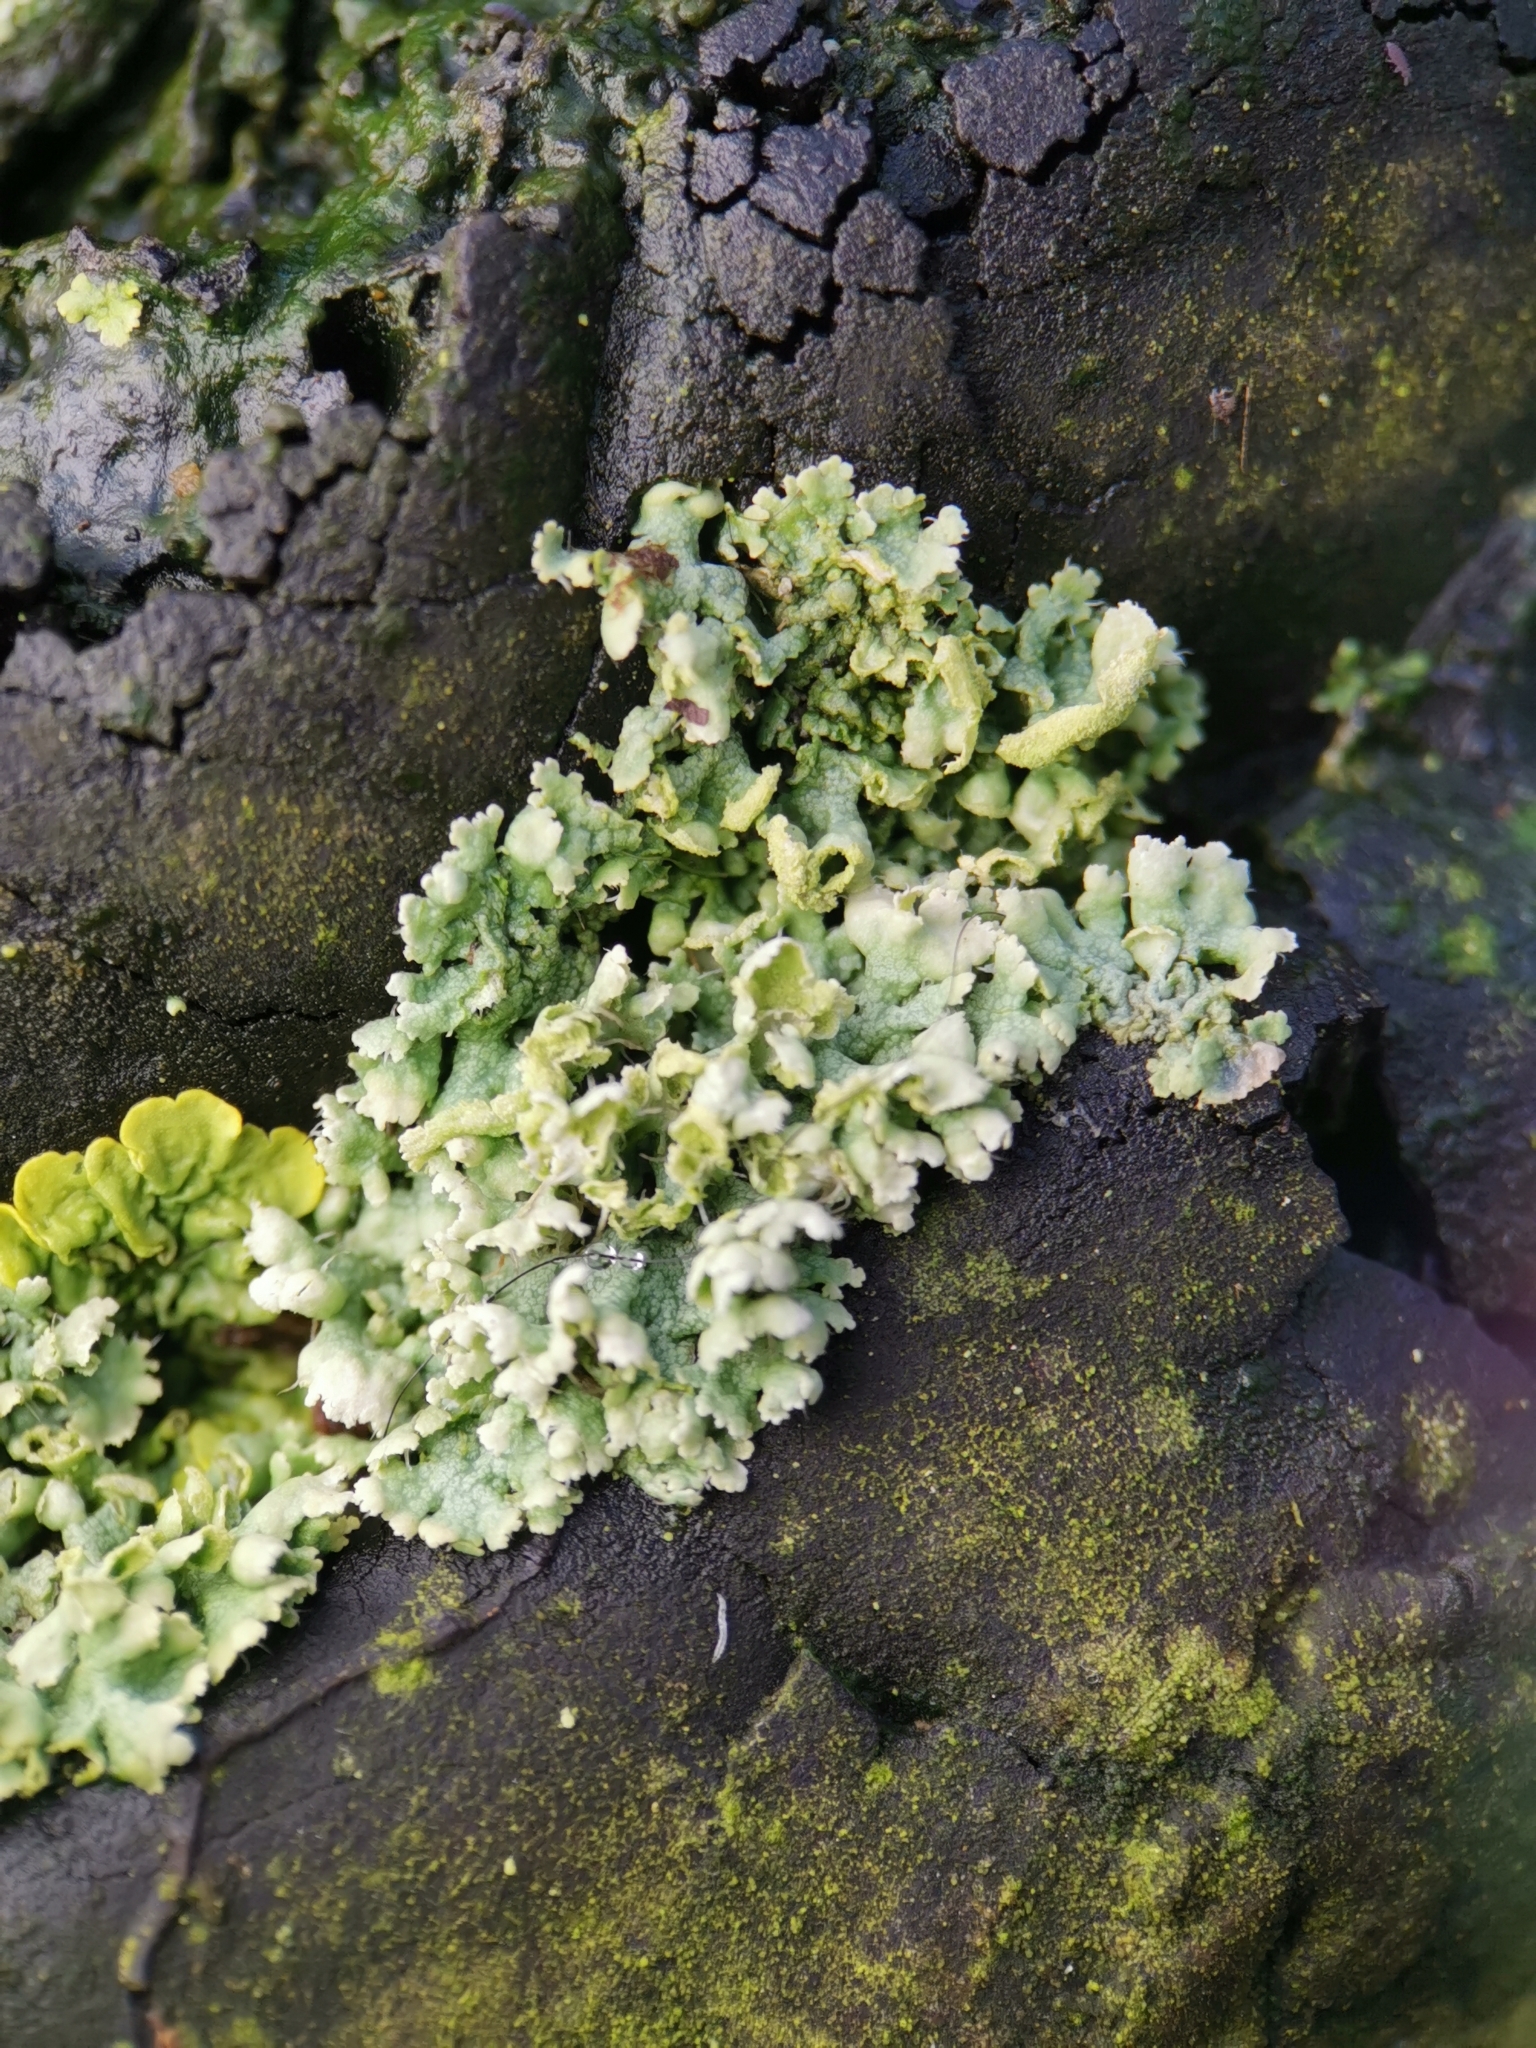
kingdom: Fungi
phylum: Ascomycota
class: Lecanoromycetes
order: Caliciales
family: Physciaceae
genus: Physcia
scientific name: Physcia adscendens
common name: Hooded rosette lichen
